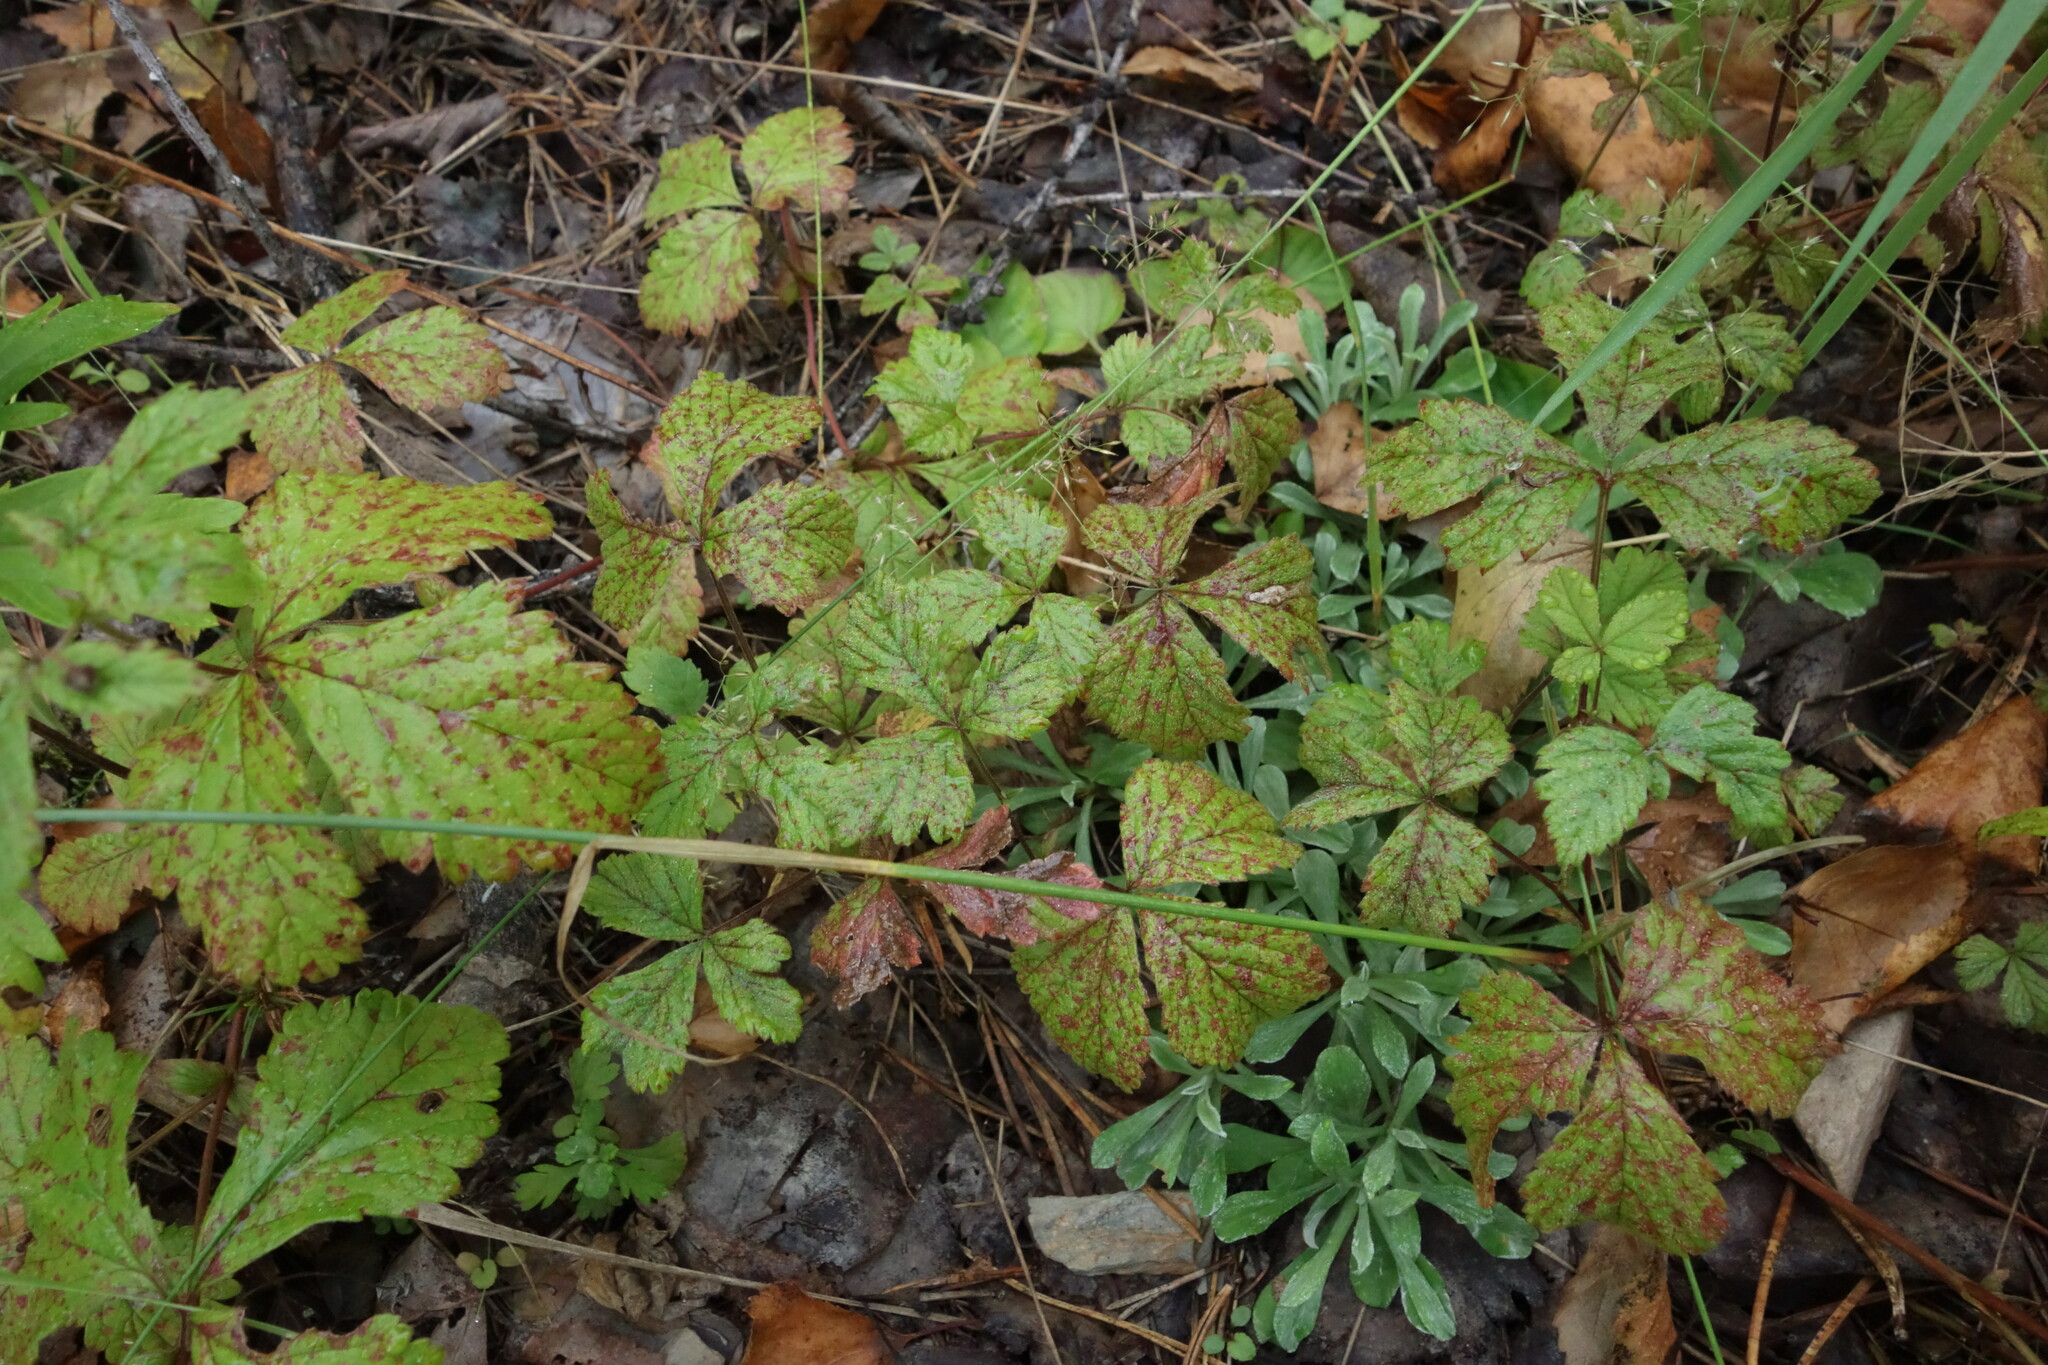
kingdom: Plantae
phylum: Tracheophyta
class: Magnoliopsida
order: Rosales
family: Rosaceae
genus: Rubus
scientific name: Rubus arcticus
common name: Arctic bramble
